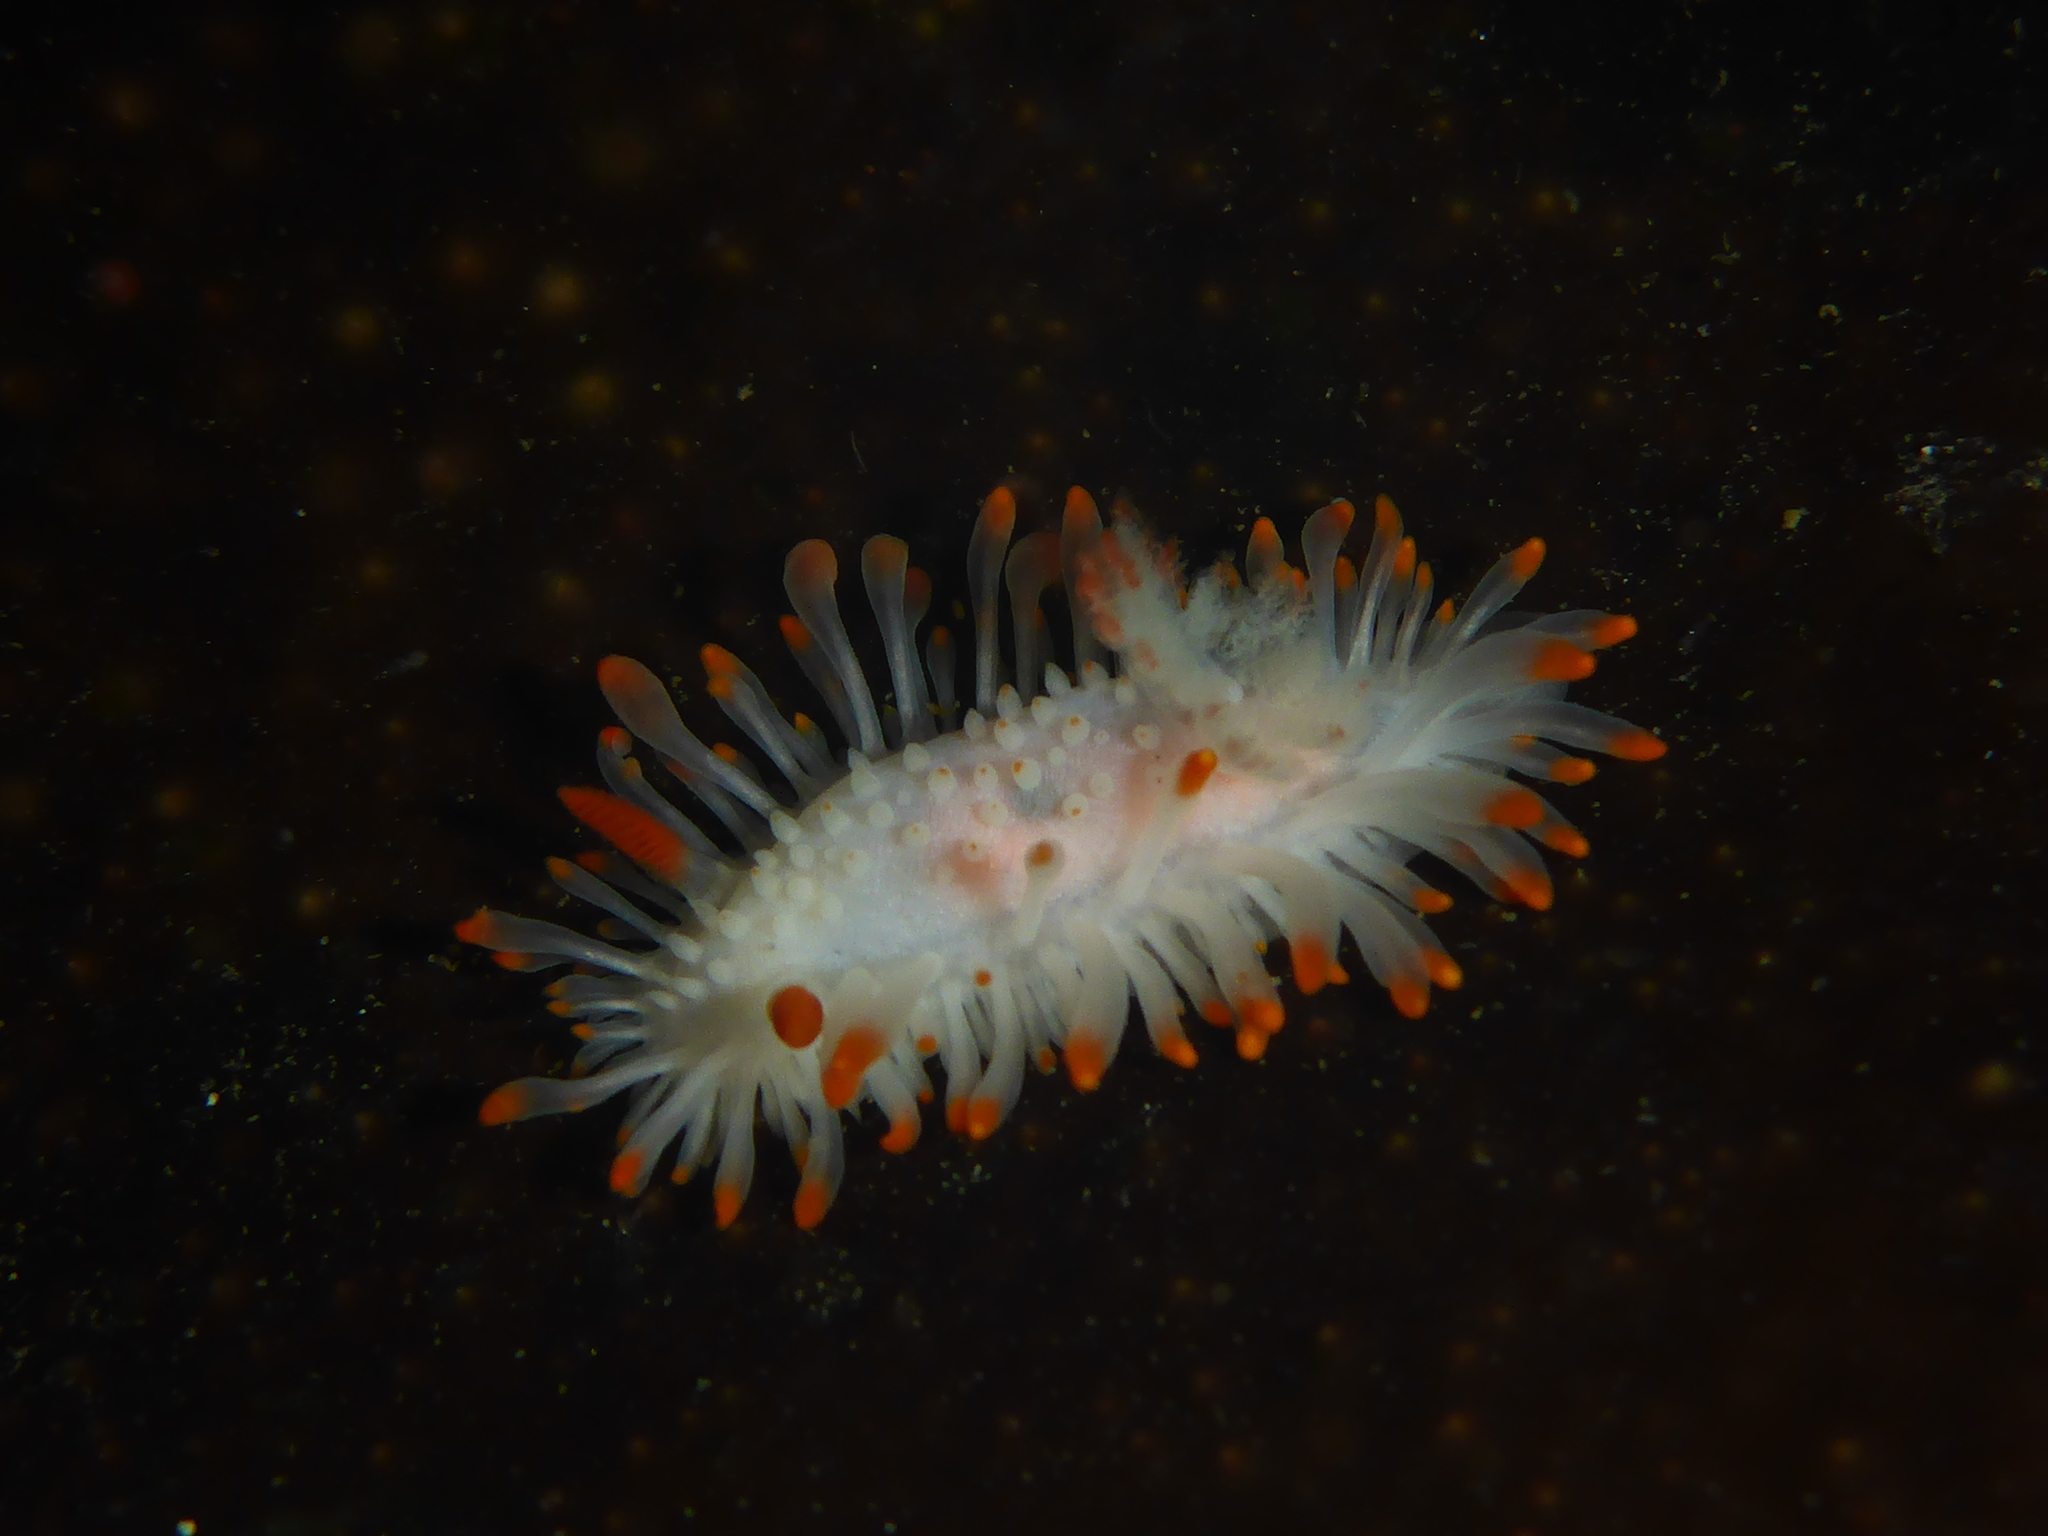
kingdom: Animalia
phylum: Mollusca
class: Gastropoda
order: Nudibranchia
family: Polyceridae
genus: Limacia
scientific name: Limacia cockerelli
